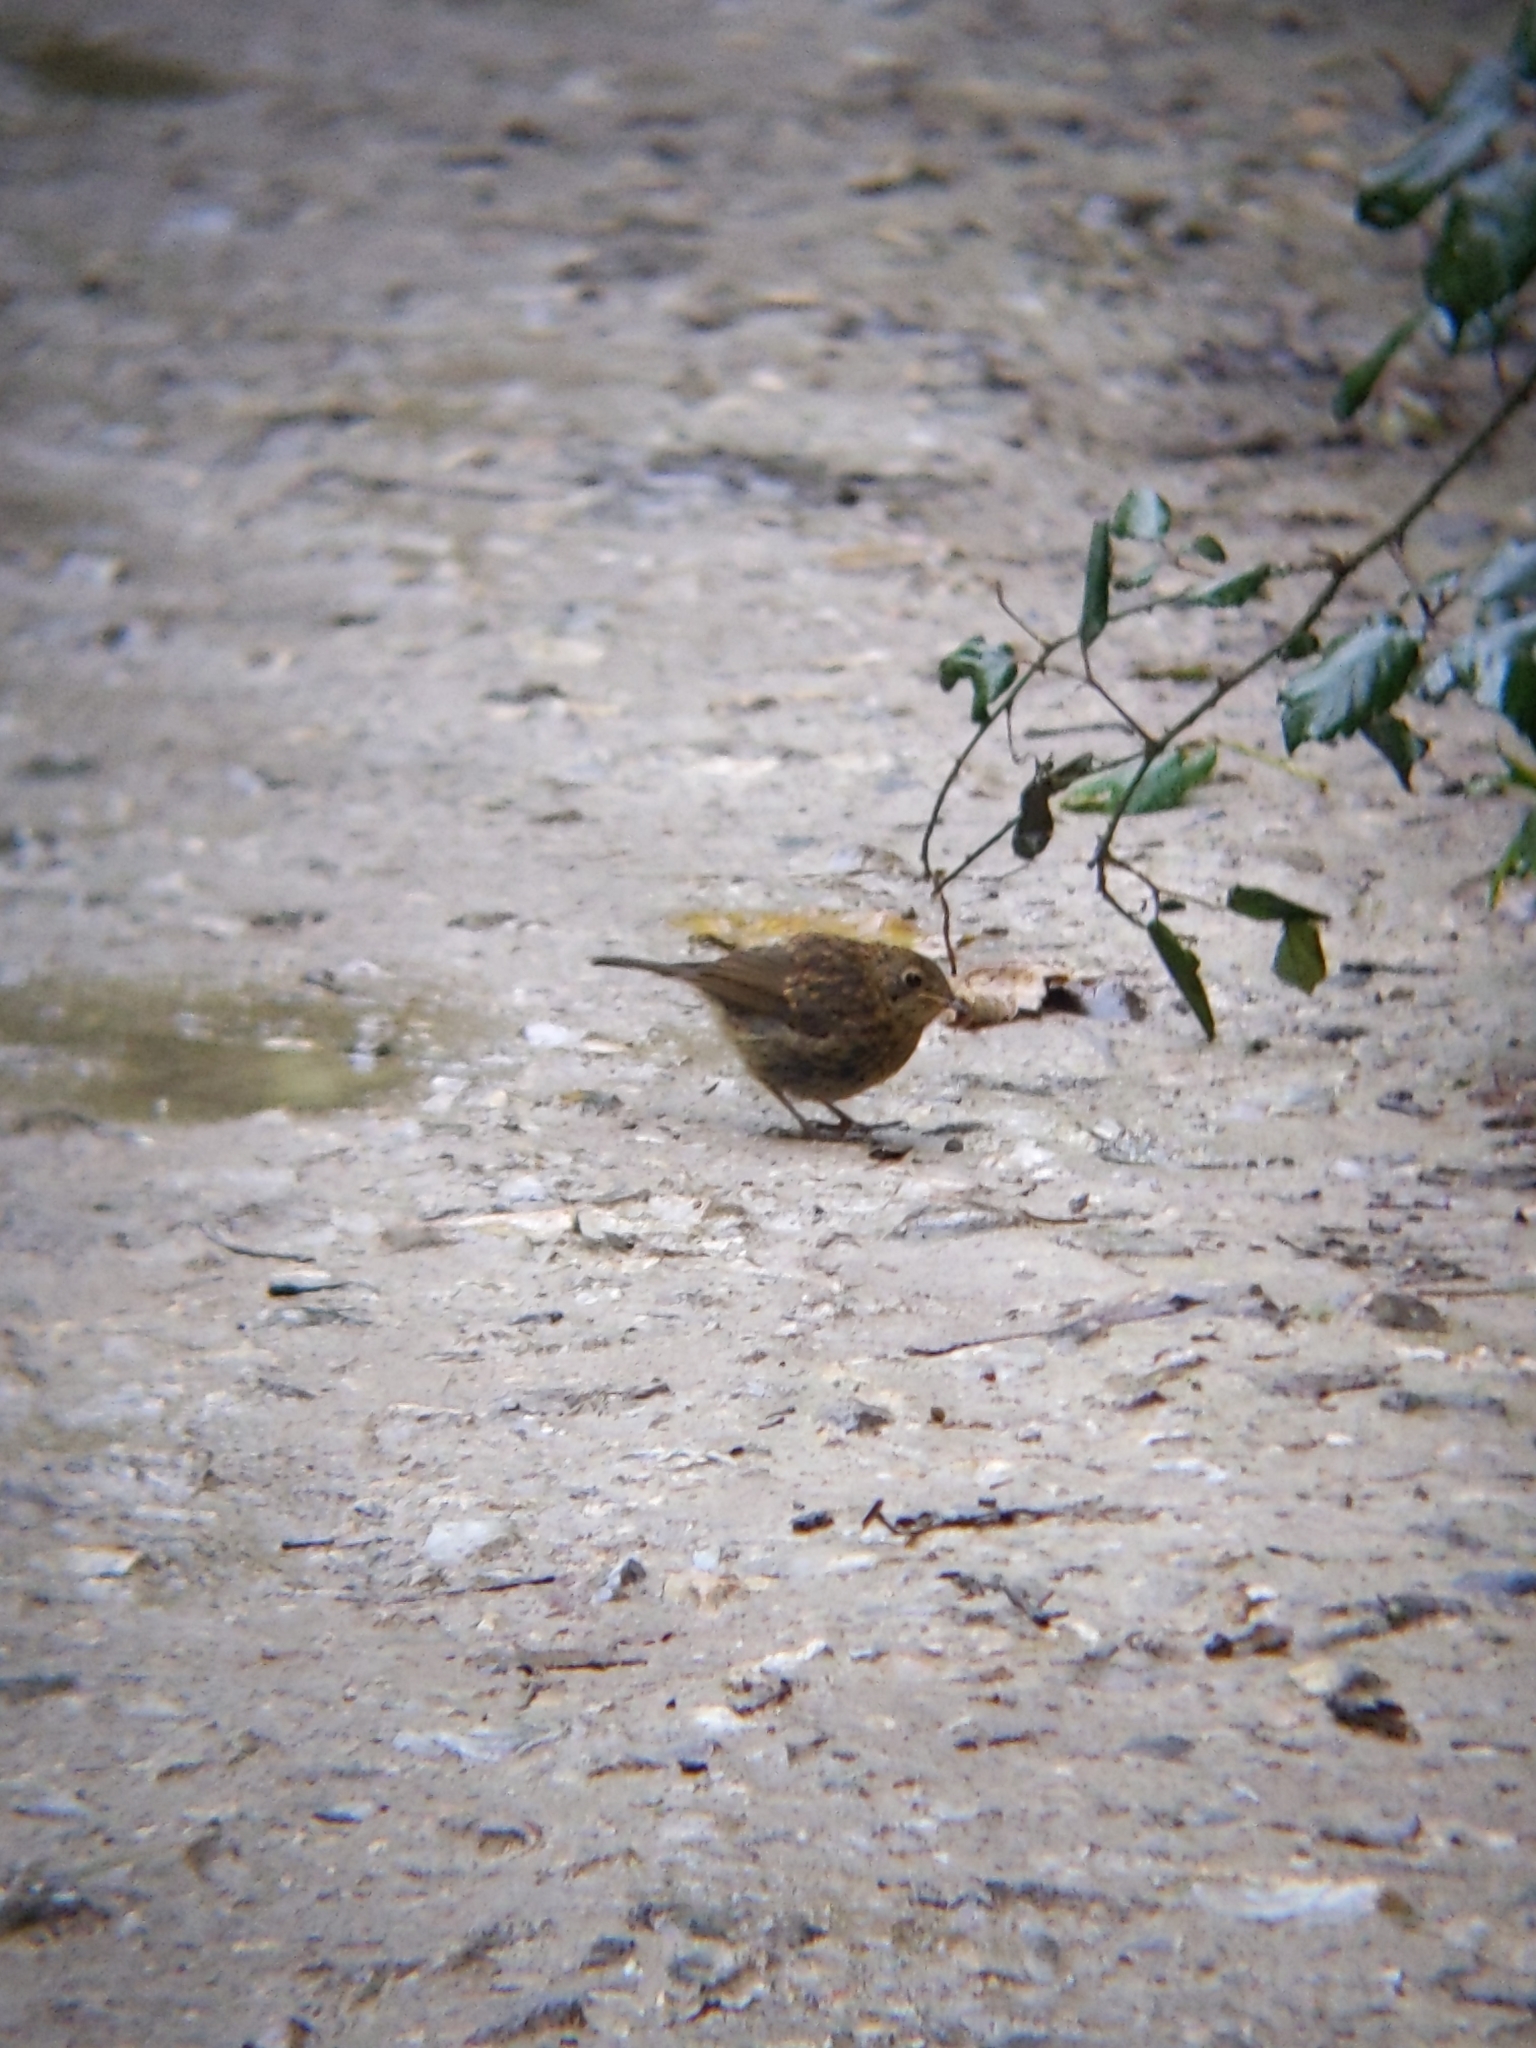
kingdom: Animalia
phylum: Chordata
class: Aves
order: Passeriformes
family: Muscicapidae
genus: Erithacus
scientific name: Erithacus rubecula
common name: European robin
